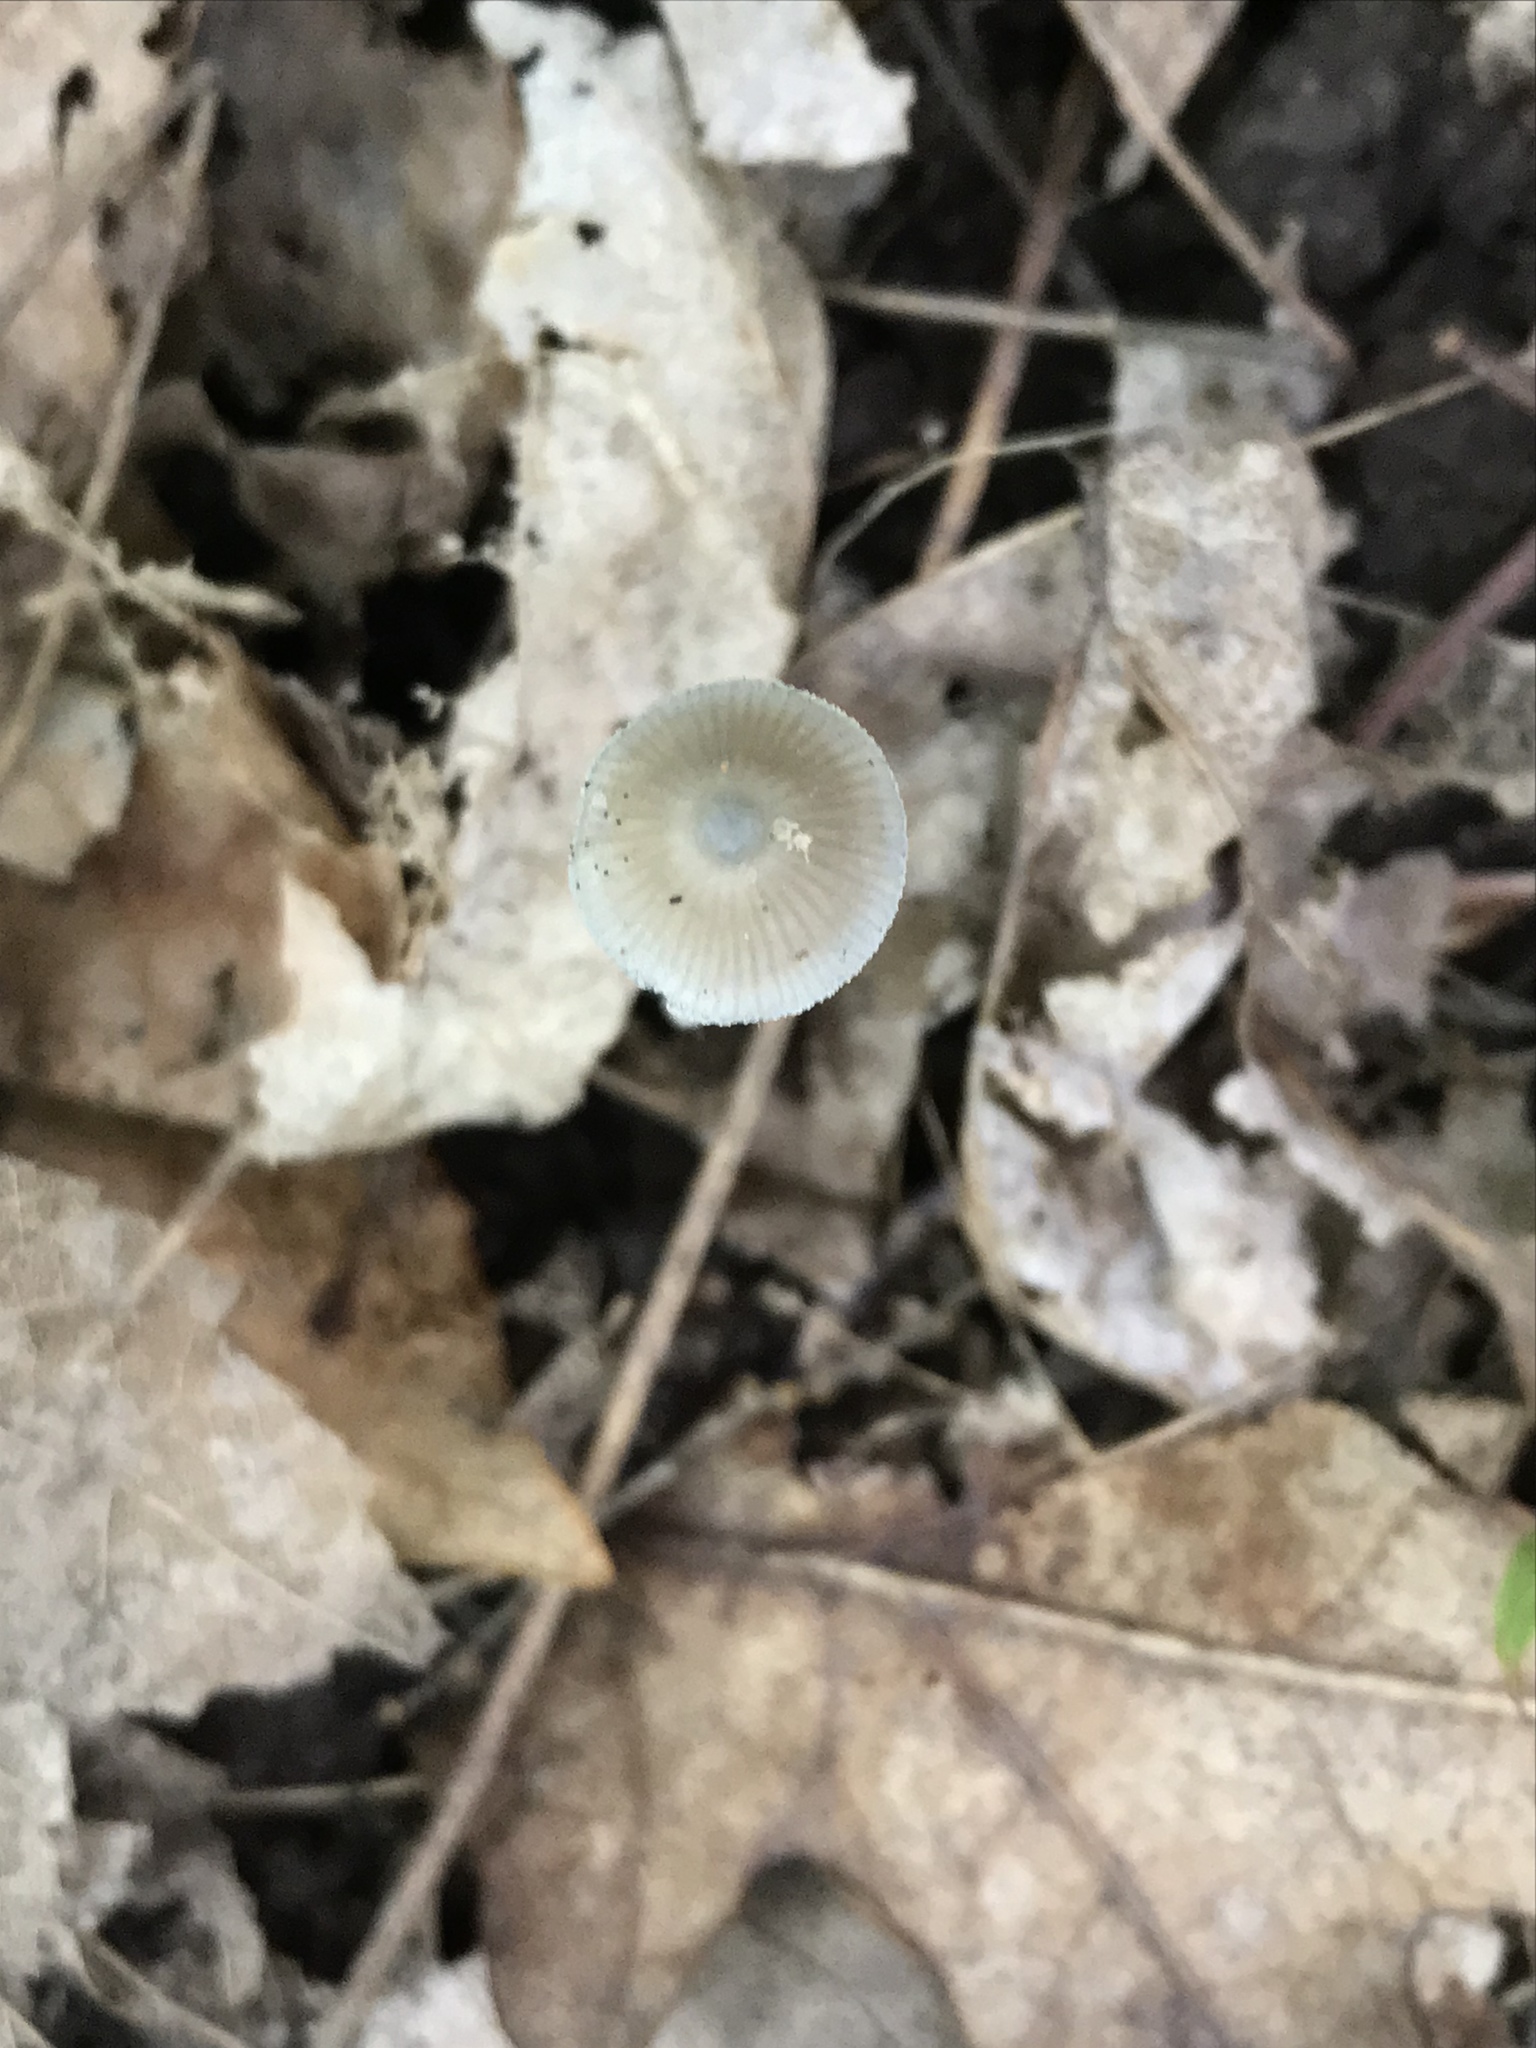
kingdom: Fungi
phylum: Basidiomycota
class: Agaricomycetes
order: Agaricales
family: Mycenaceae
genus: Mycena
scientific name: Mycena subcaerulea
